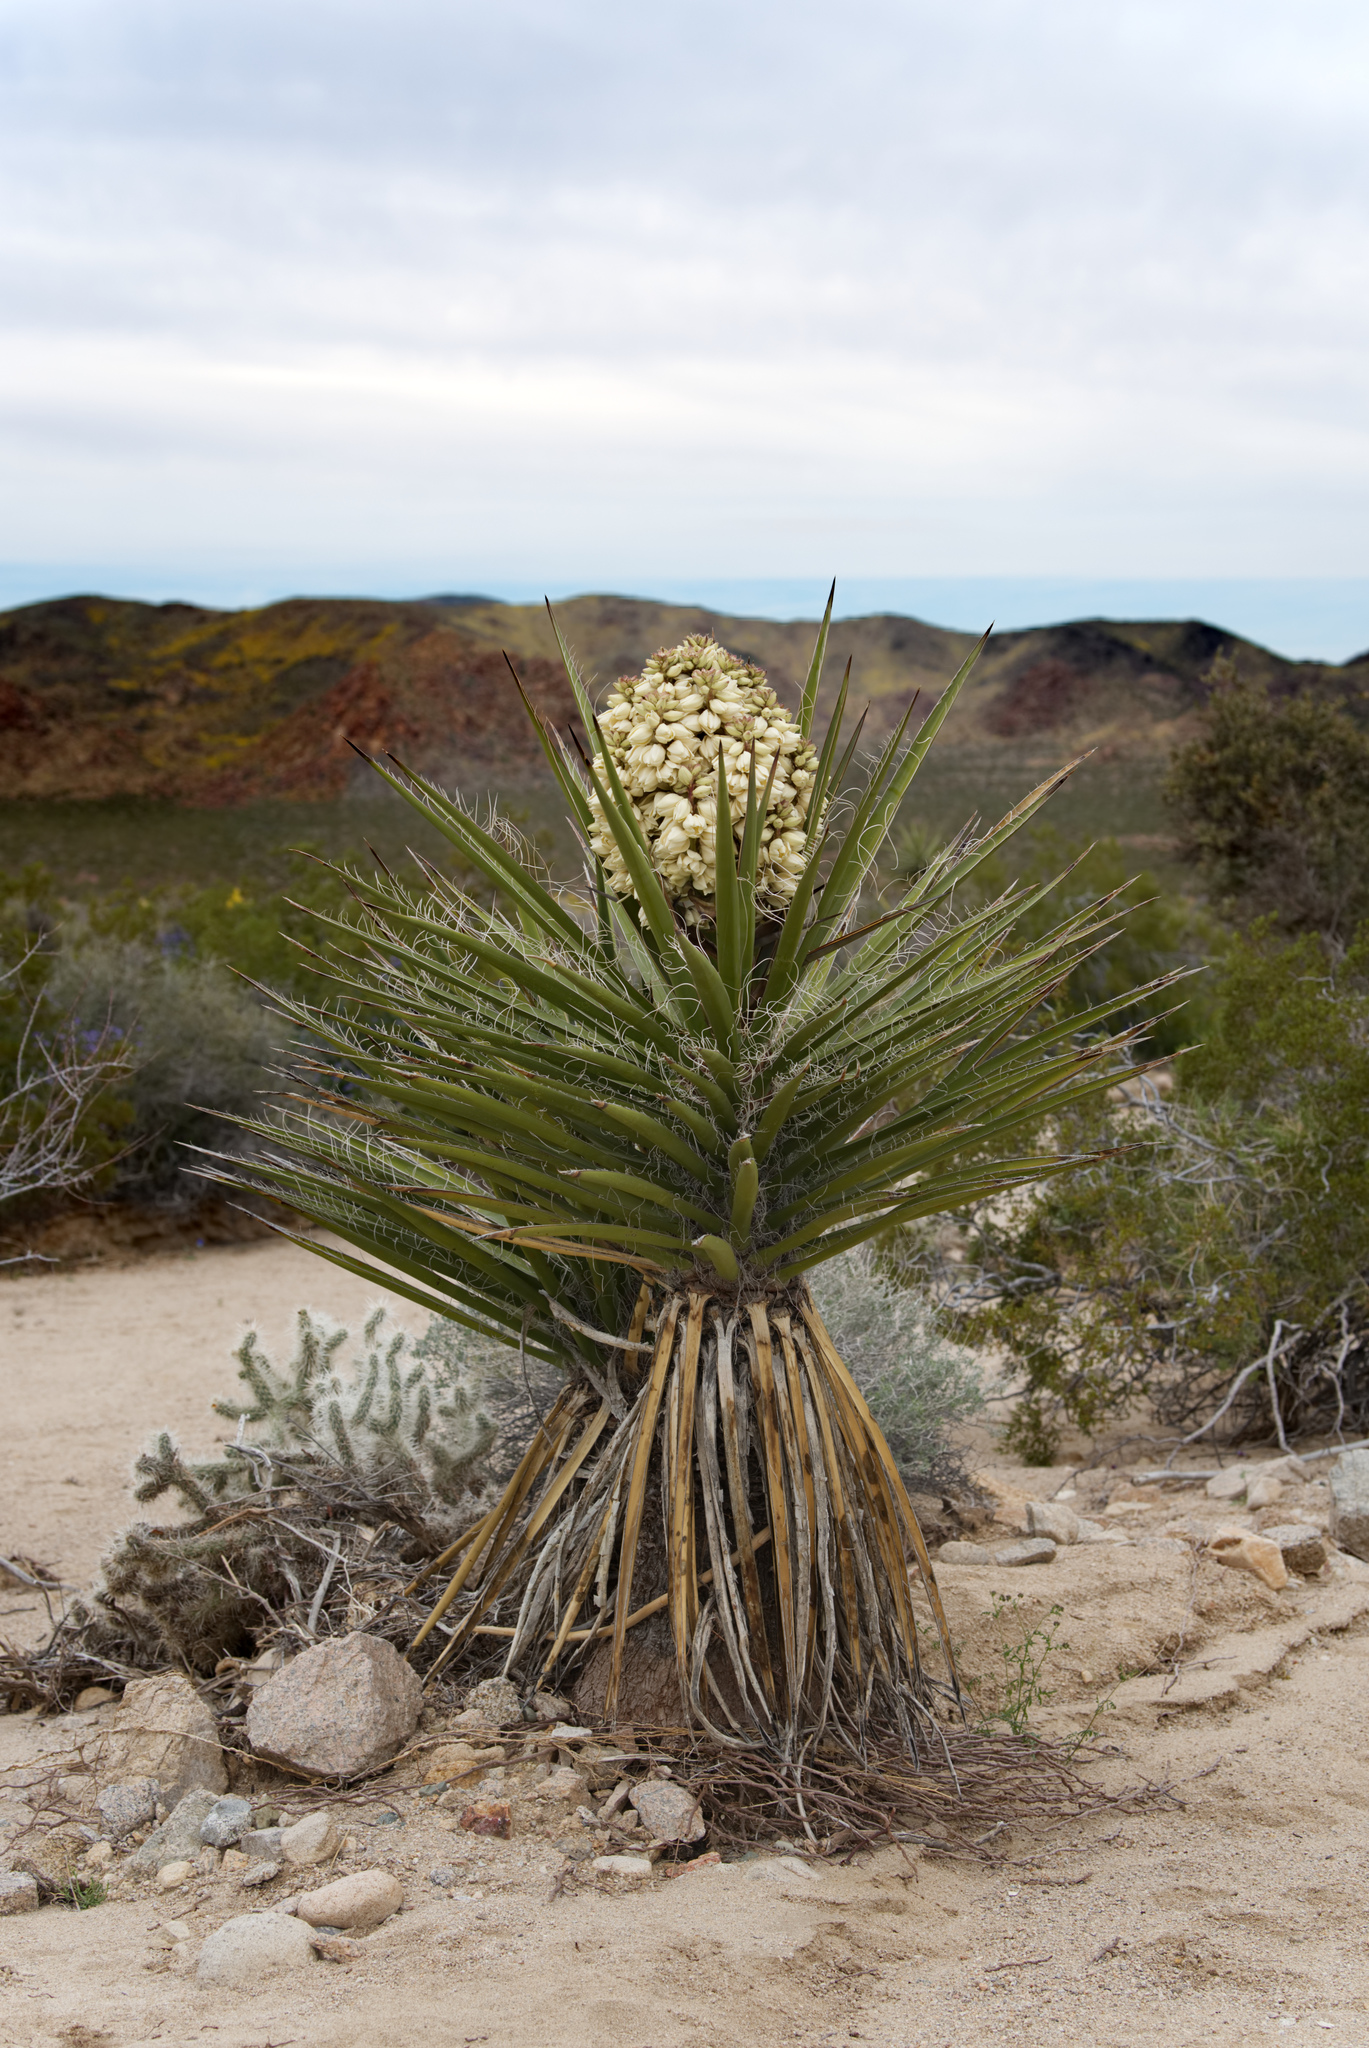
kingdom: Plantae
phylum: Tracheophyta
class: Liliopsida
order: Asparagales
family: Asparagaceae
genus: Yucca
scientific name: Yucca schidigera
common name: Mojave yucca
